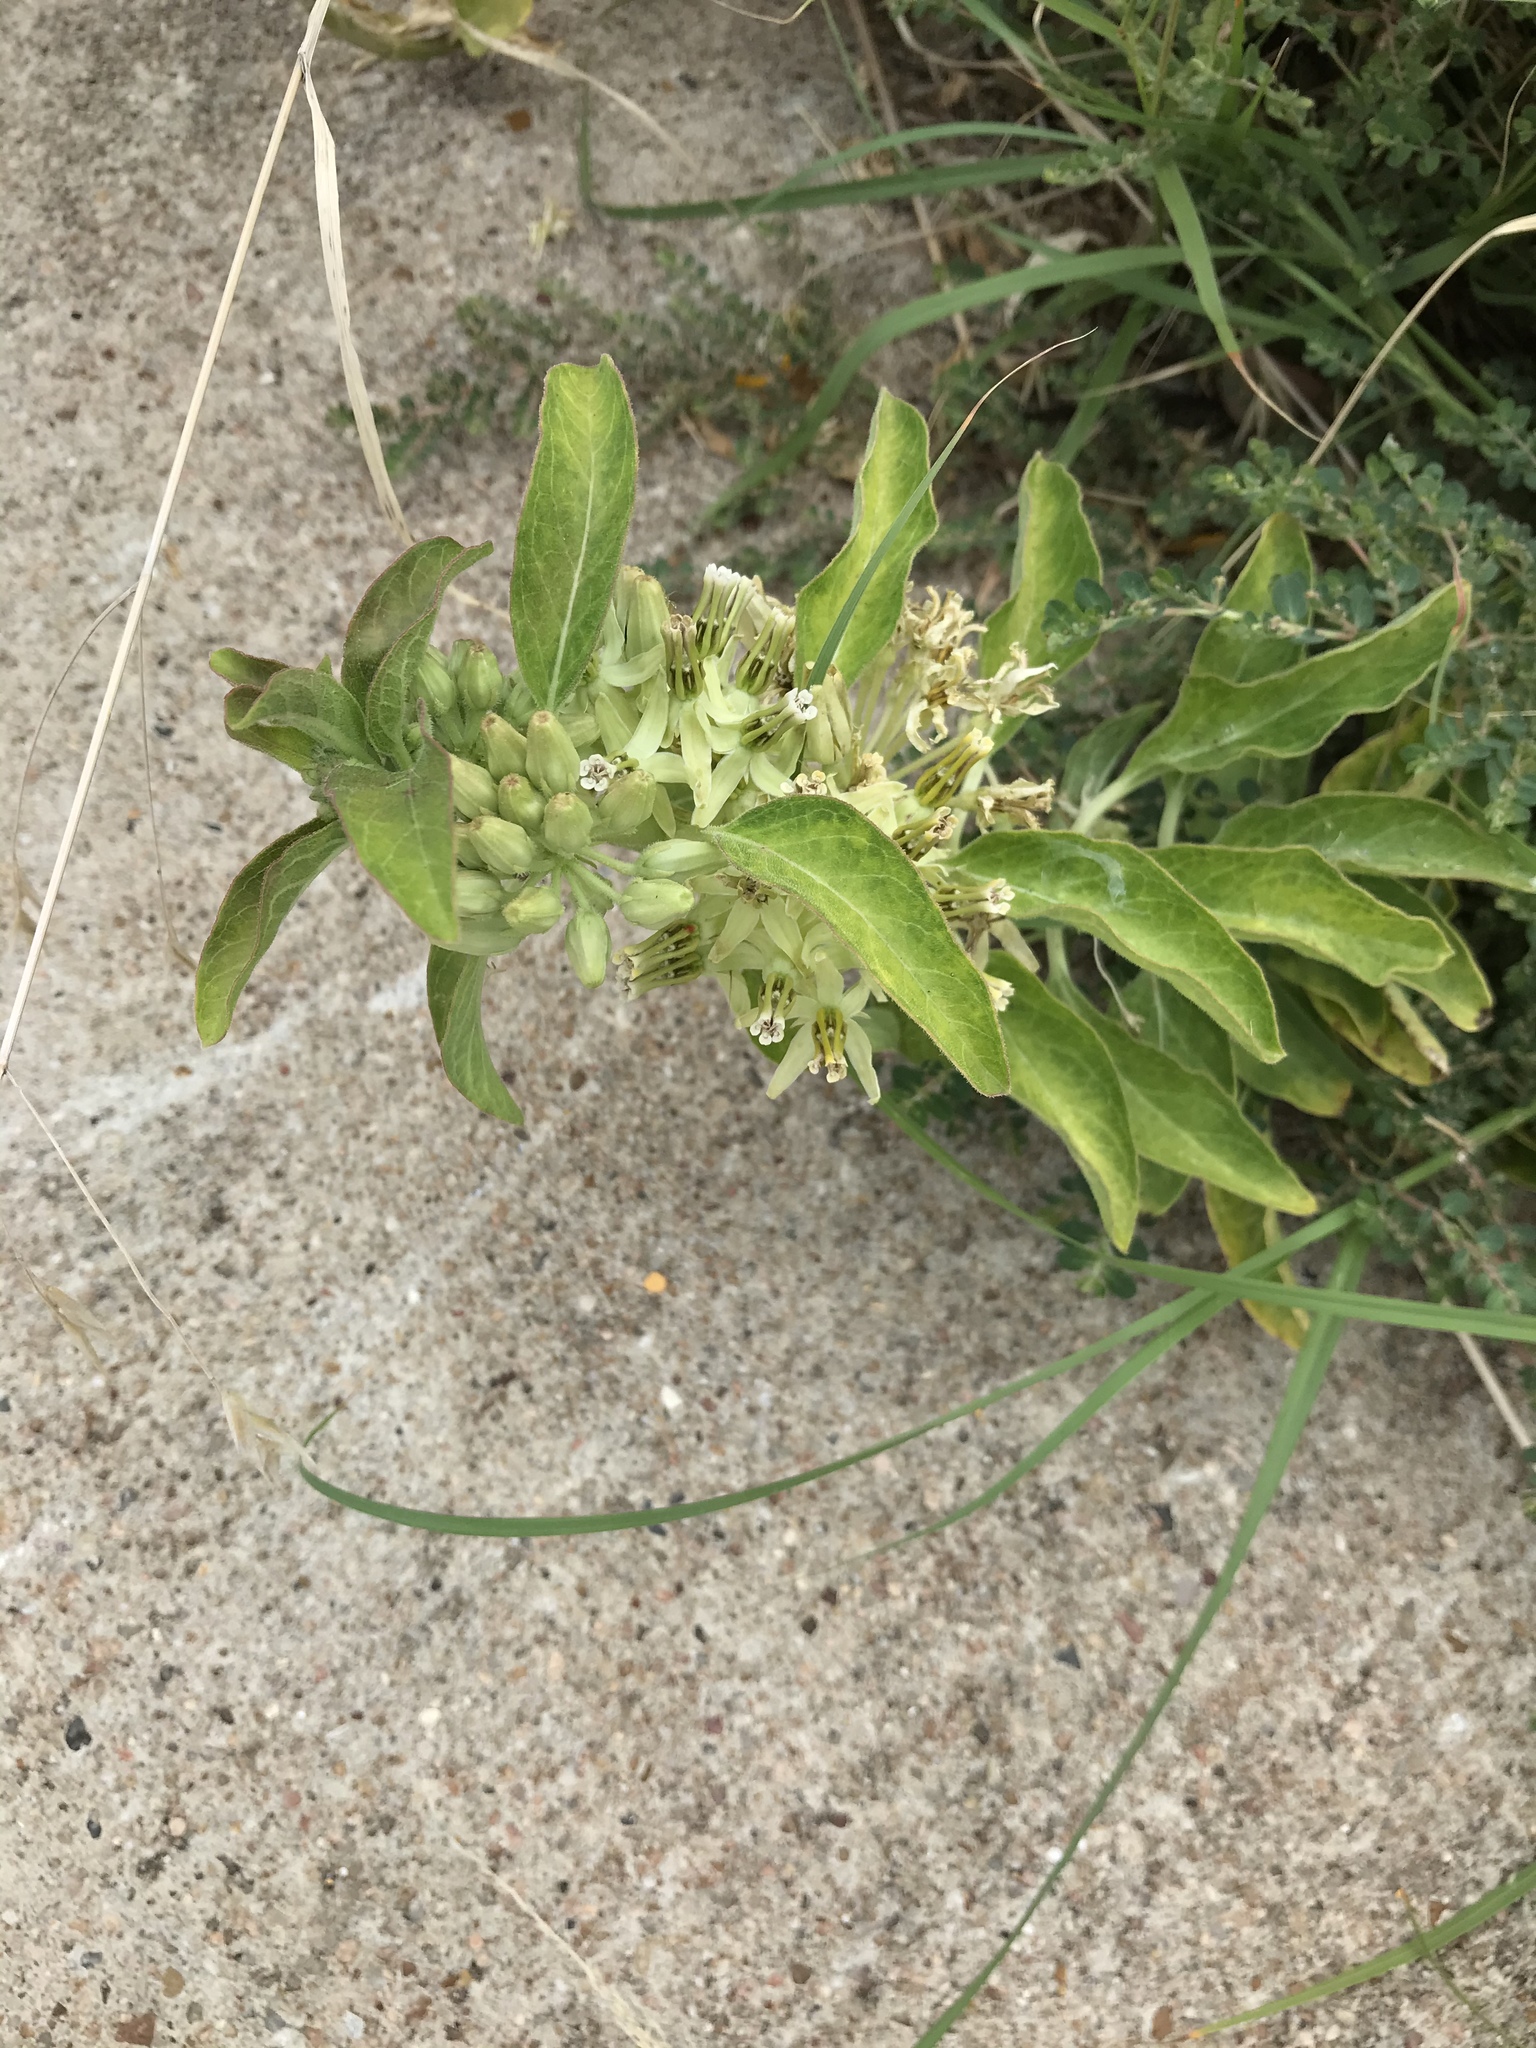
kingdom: Plantae
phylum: Tracheophyta
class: Magnoliopsida
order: Gentianales
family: Apocynaceae
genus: Asclepias
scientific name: Asclepias oenotheroides
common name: Zizotes milkweed
